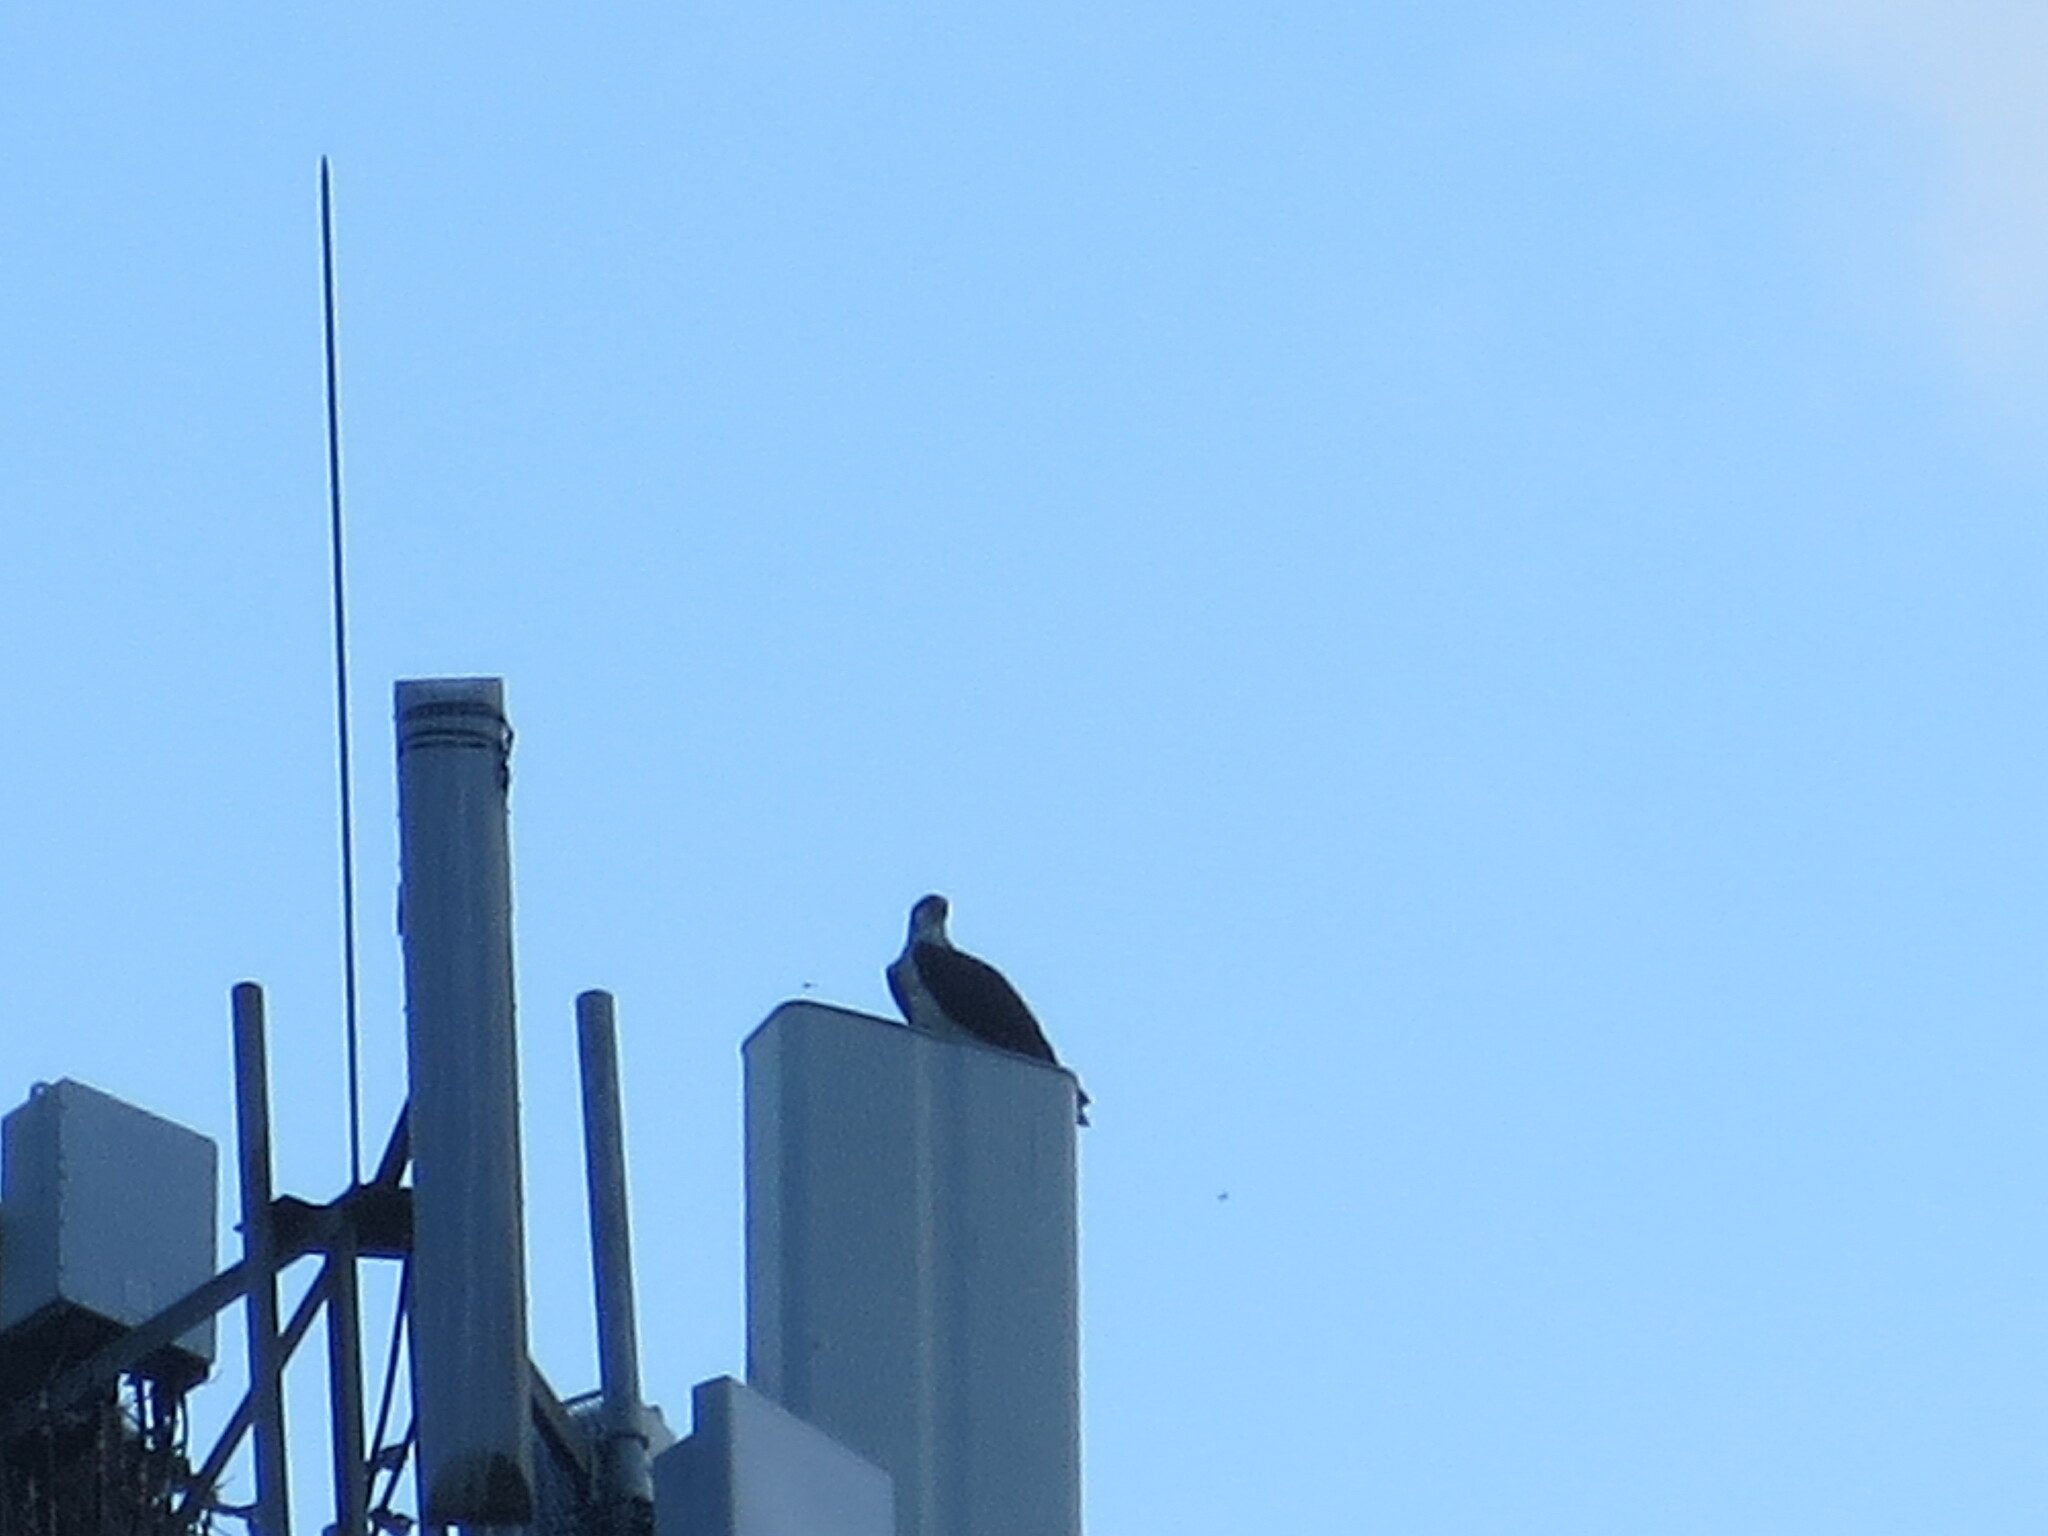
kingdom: Animalia
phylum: Chordata
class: Aves
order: Accipitriformes
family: Pandionidae
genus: Pandion
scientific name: Pandion haliaetus
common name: Osprey
